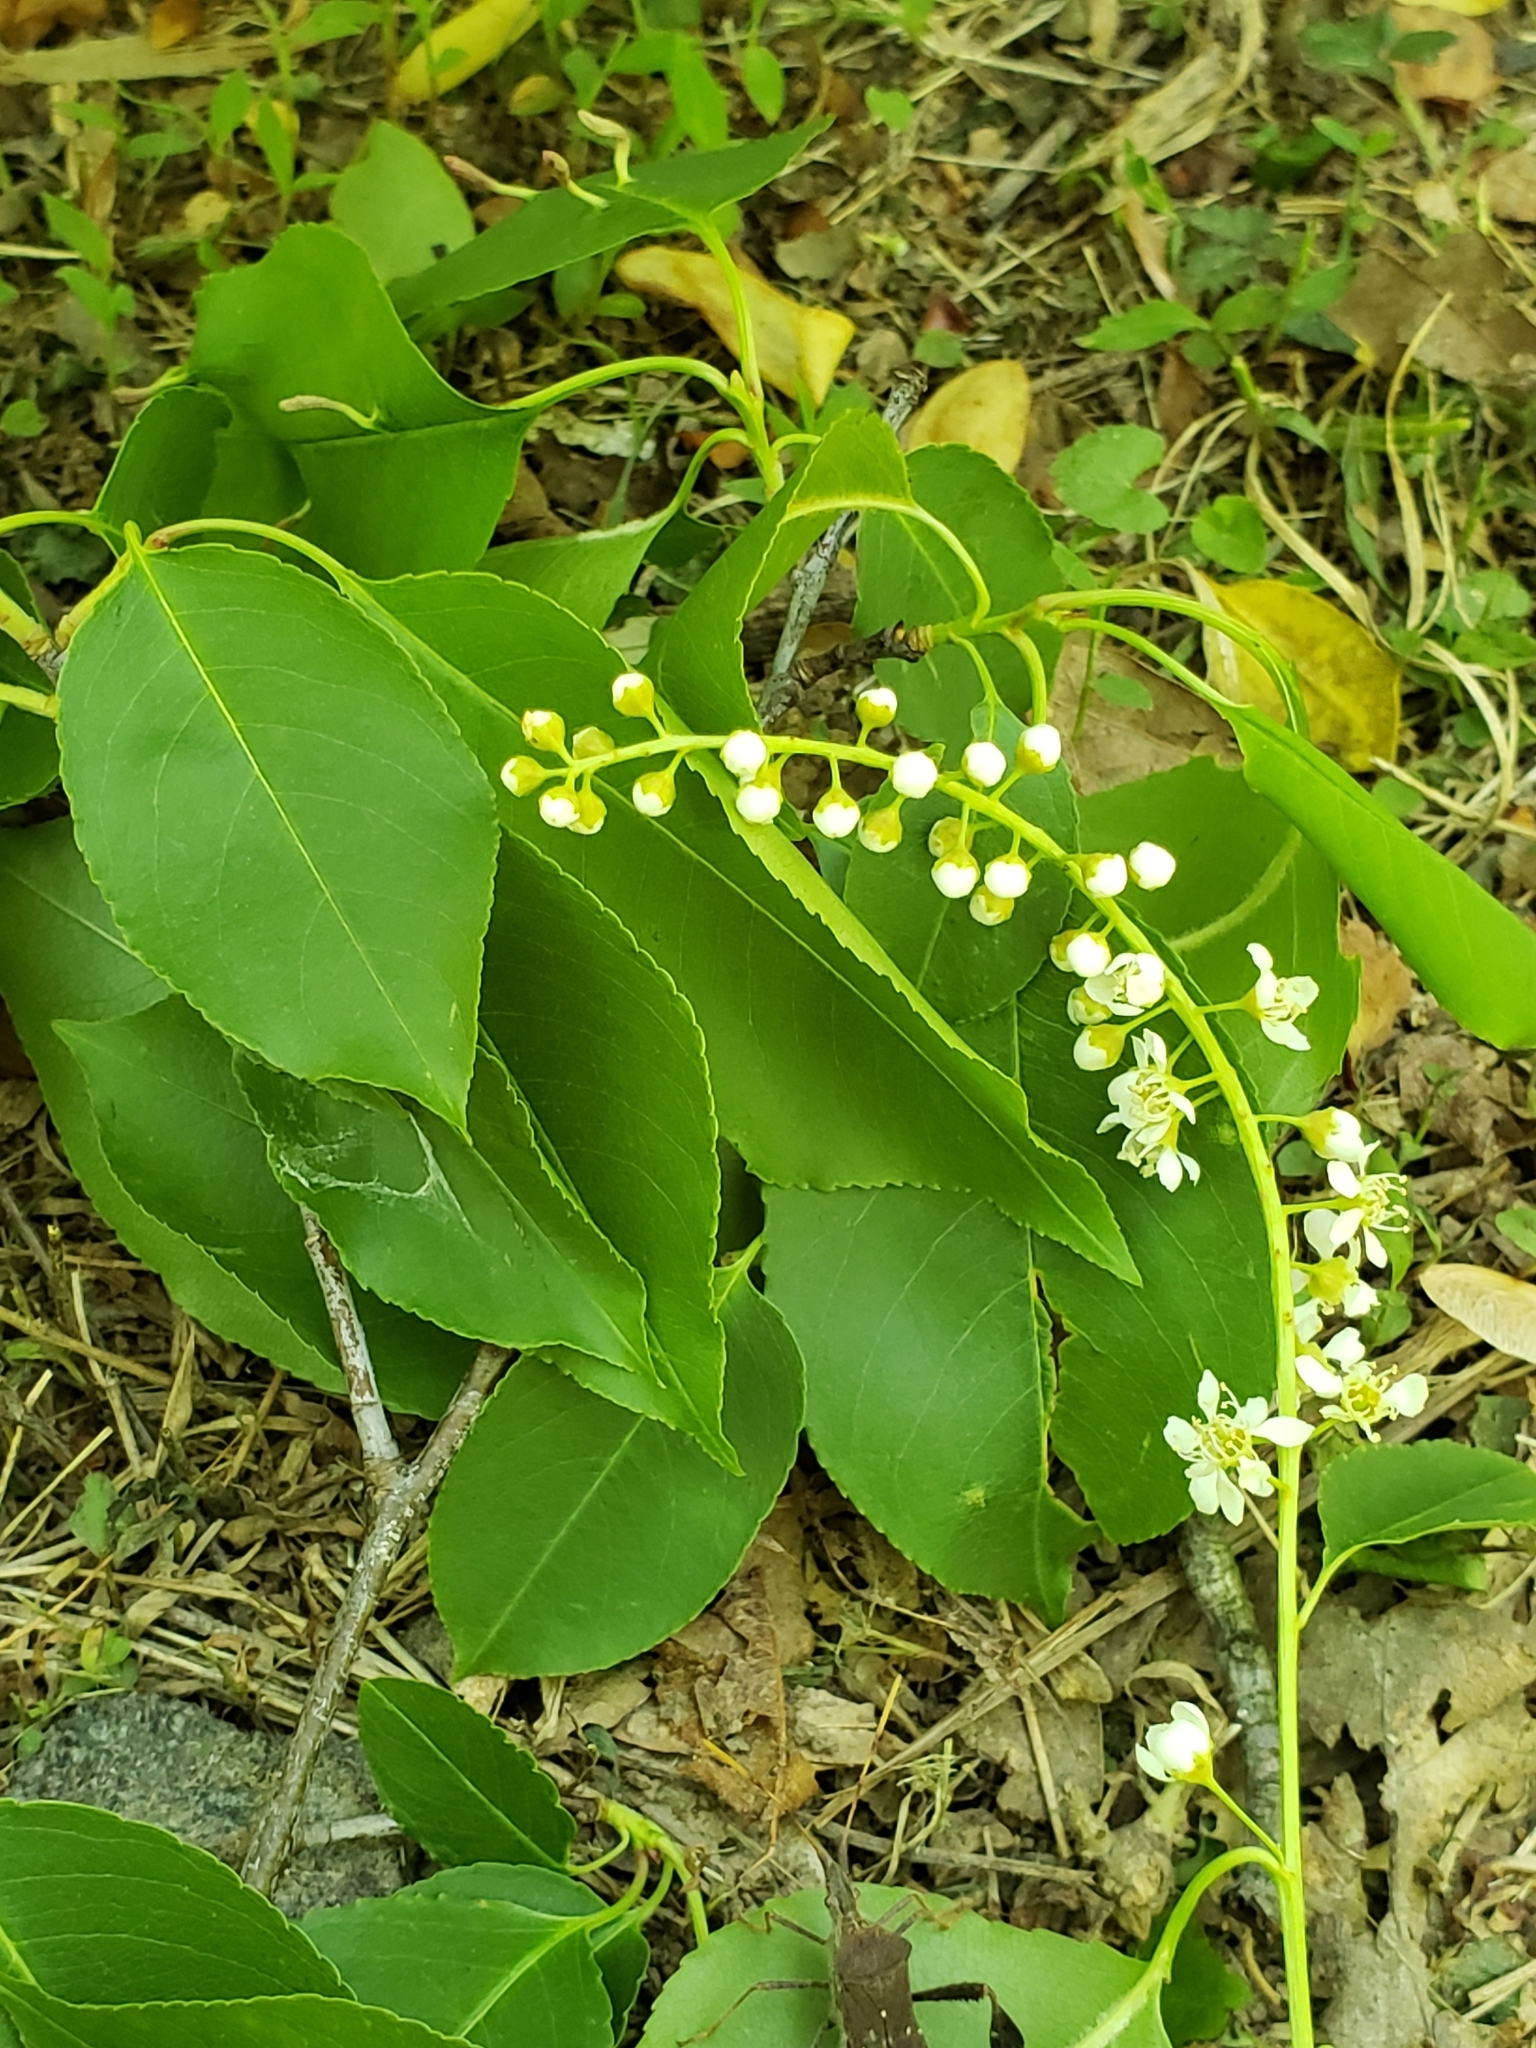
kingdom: Plantae
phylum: Tracheophyta
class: Magnoliopsida
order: Rosales
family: Rosaceae
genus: Prunus
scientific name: Prunus serotina
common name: Black cherry
